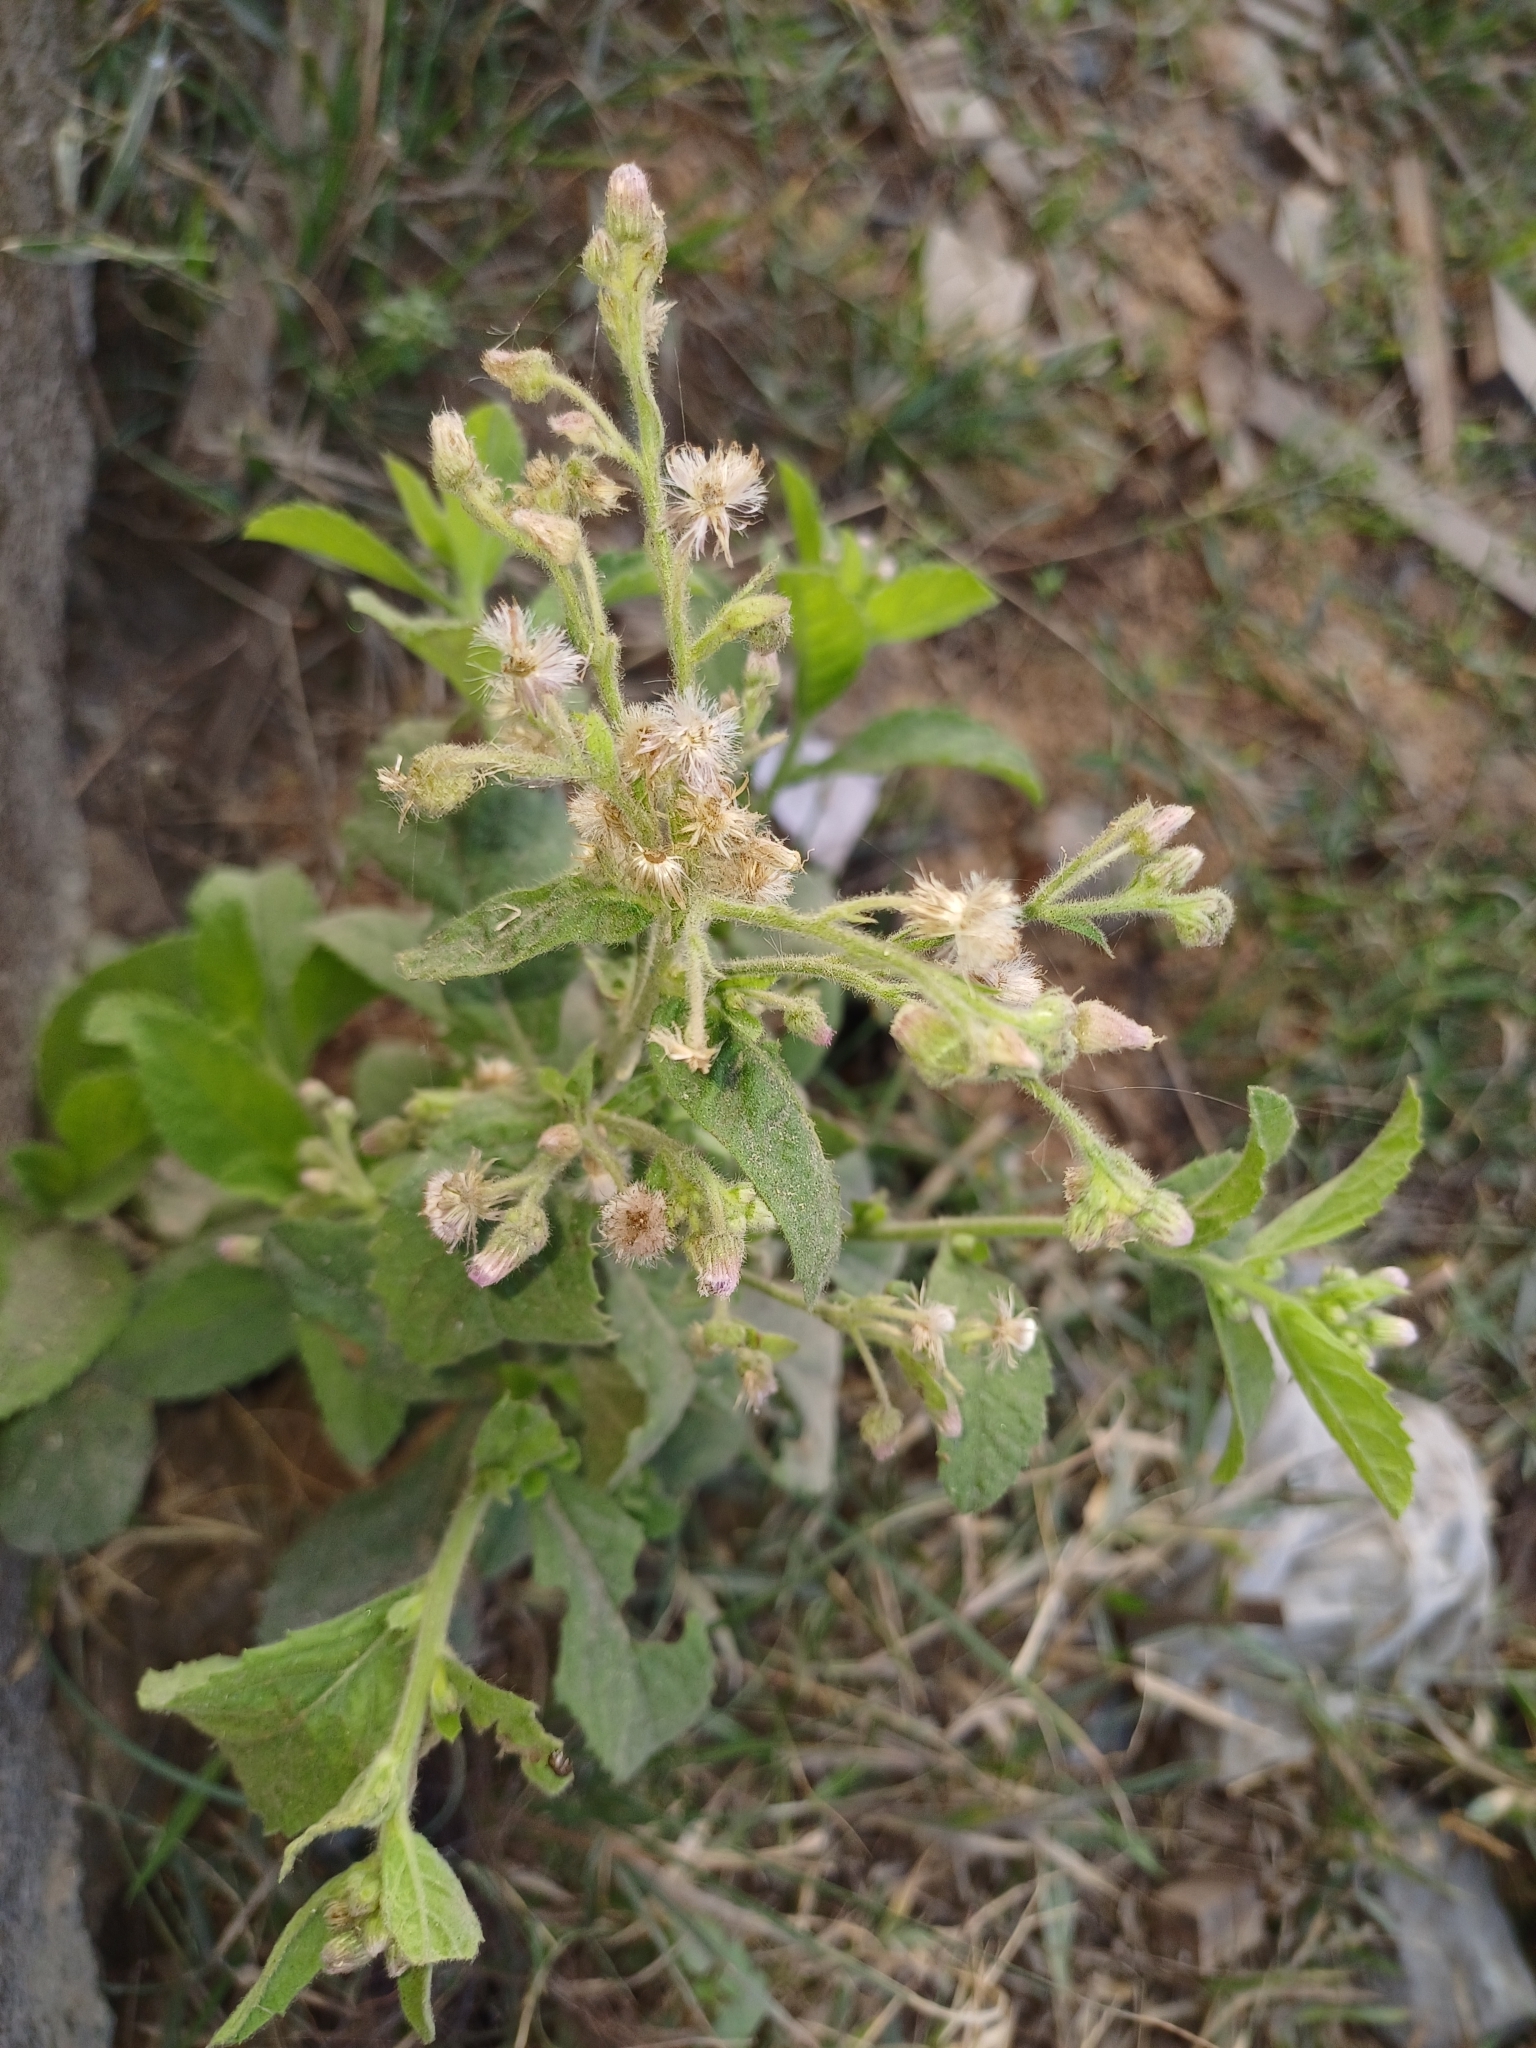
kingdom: Plantae
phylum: Tracheophyta
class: Magnoliopsida
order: Asterales
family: Asteraceae
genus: Blumea
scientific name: Blumea axillaris
